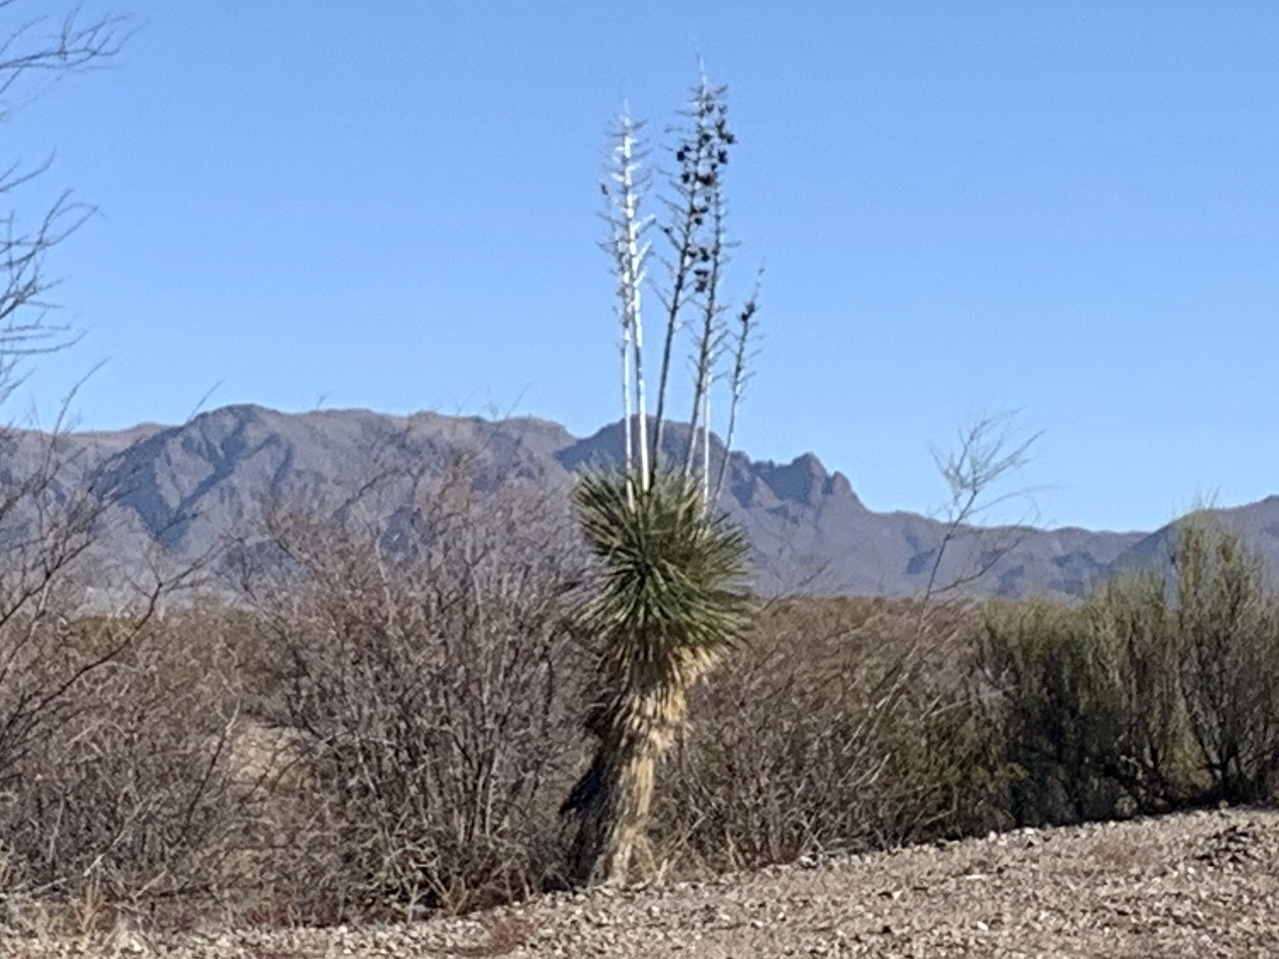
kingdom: Plantae
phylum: Tracheophyta
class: Liliopsida
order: Asparagales
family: Asparagaceae
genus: Yucca
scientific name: Yucca elata
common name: Palmella
